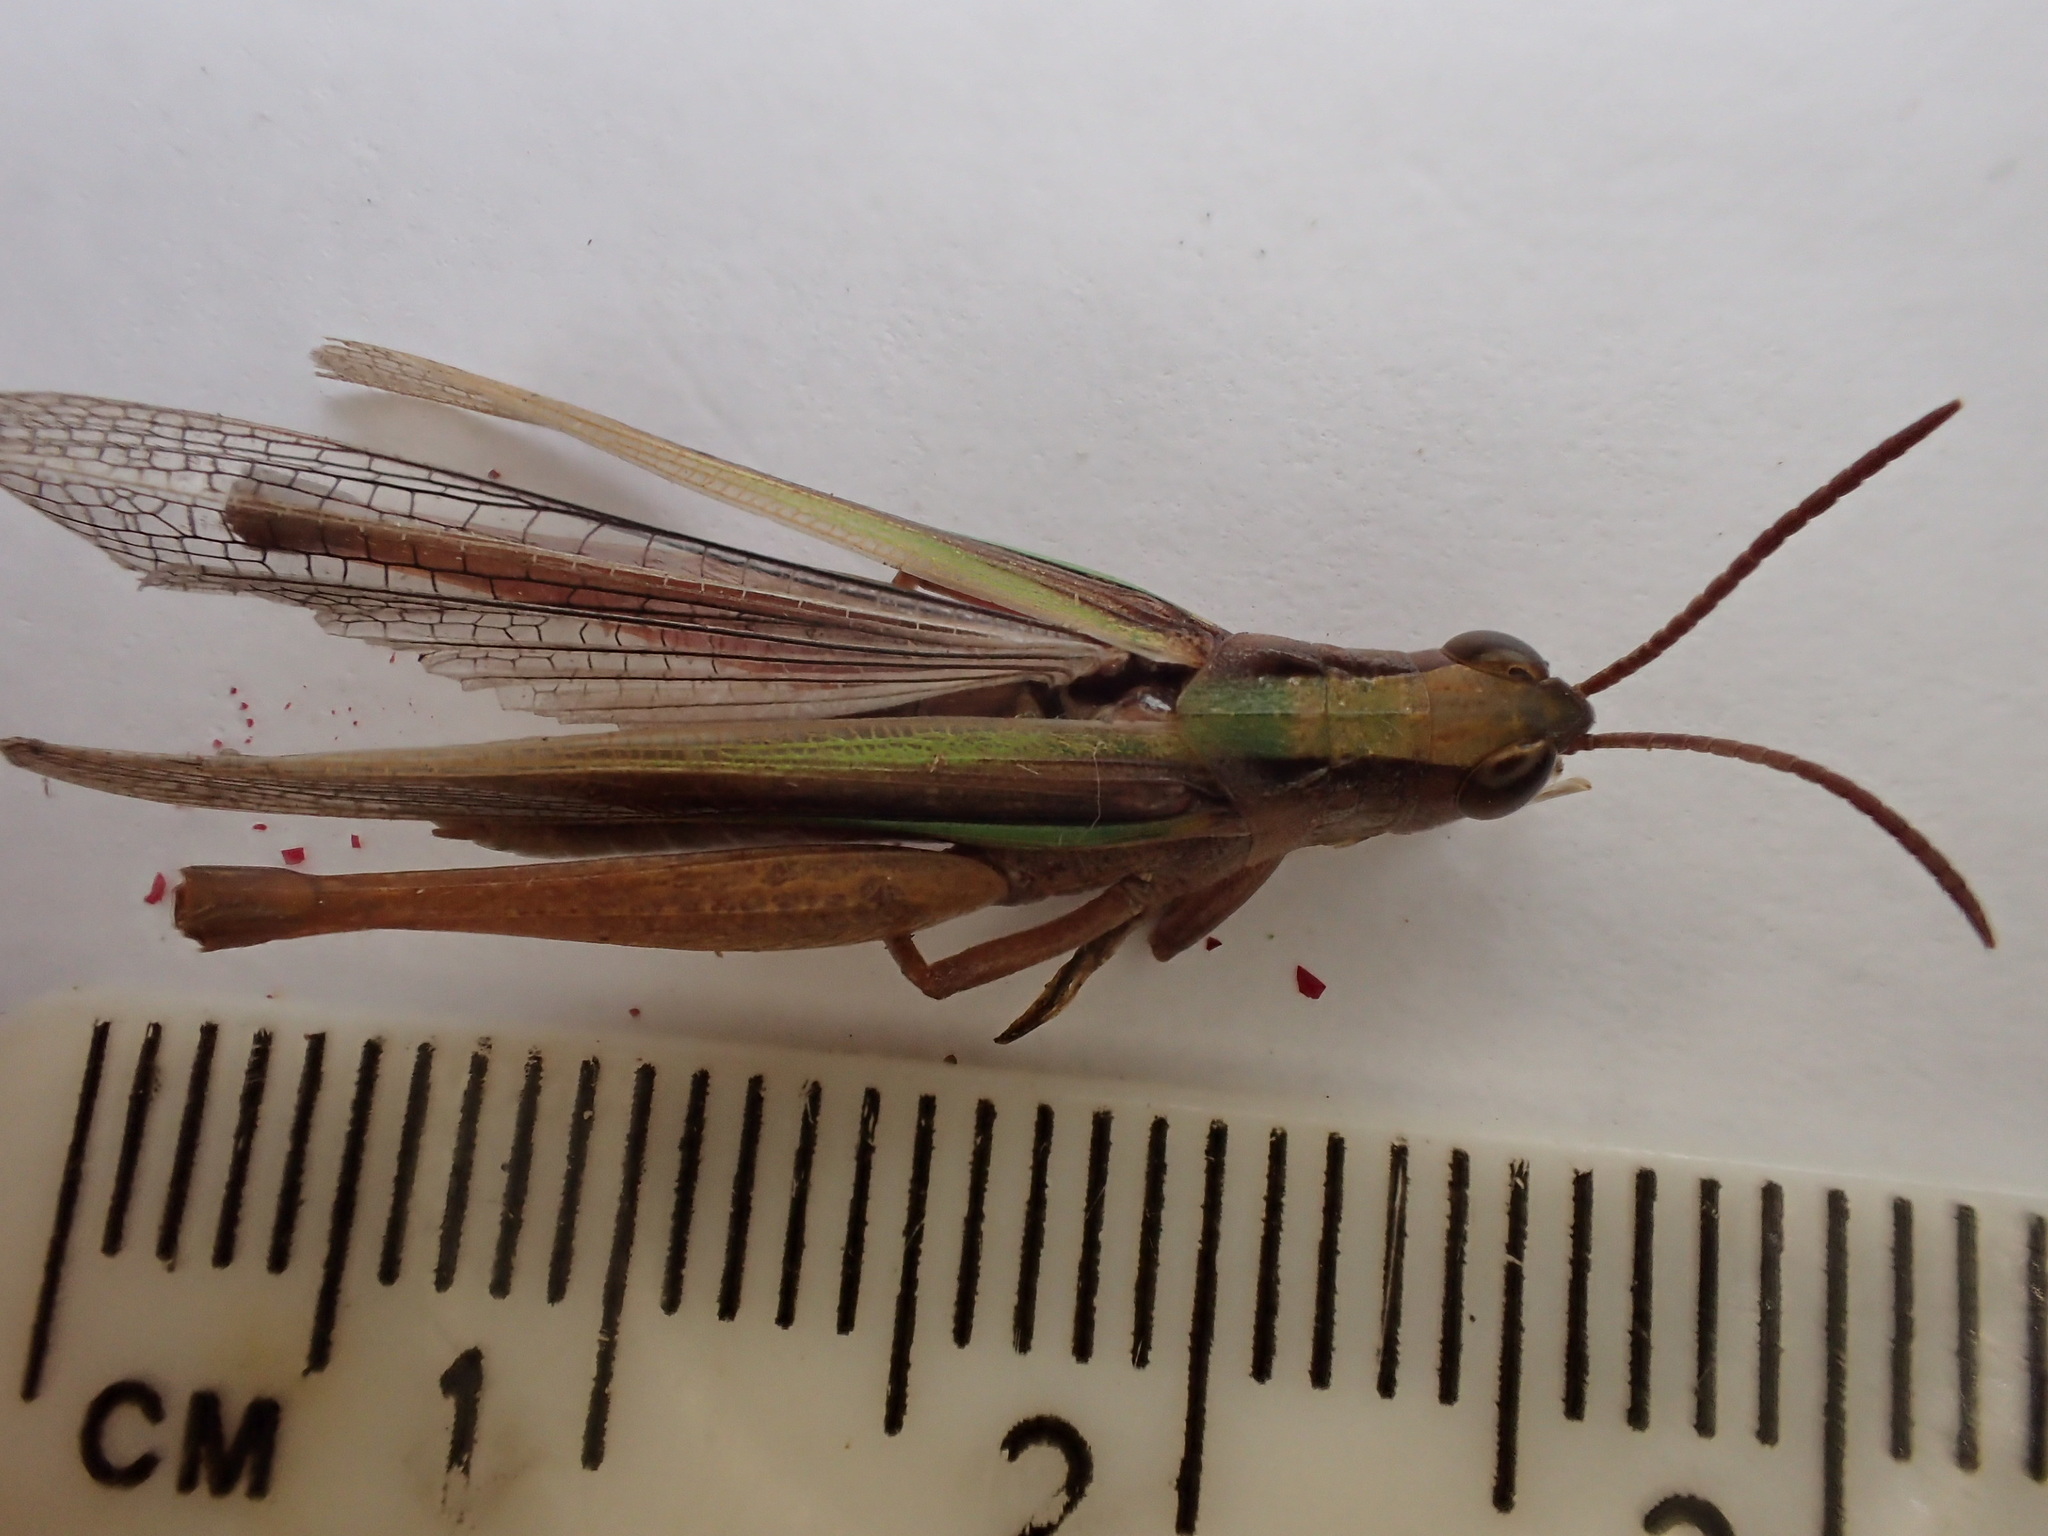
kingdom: Animalia
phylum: Arthropoda
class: Insecta
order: Orthoptera
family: Acrididae
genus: Schizobothrus
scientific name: Schizobothrus flavovittatus
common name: Disappearing grasshopper
